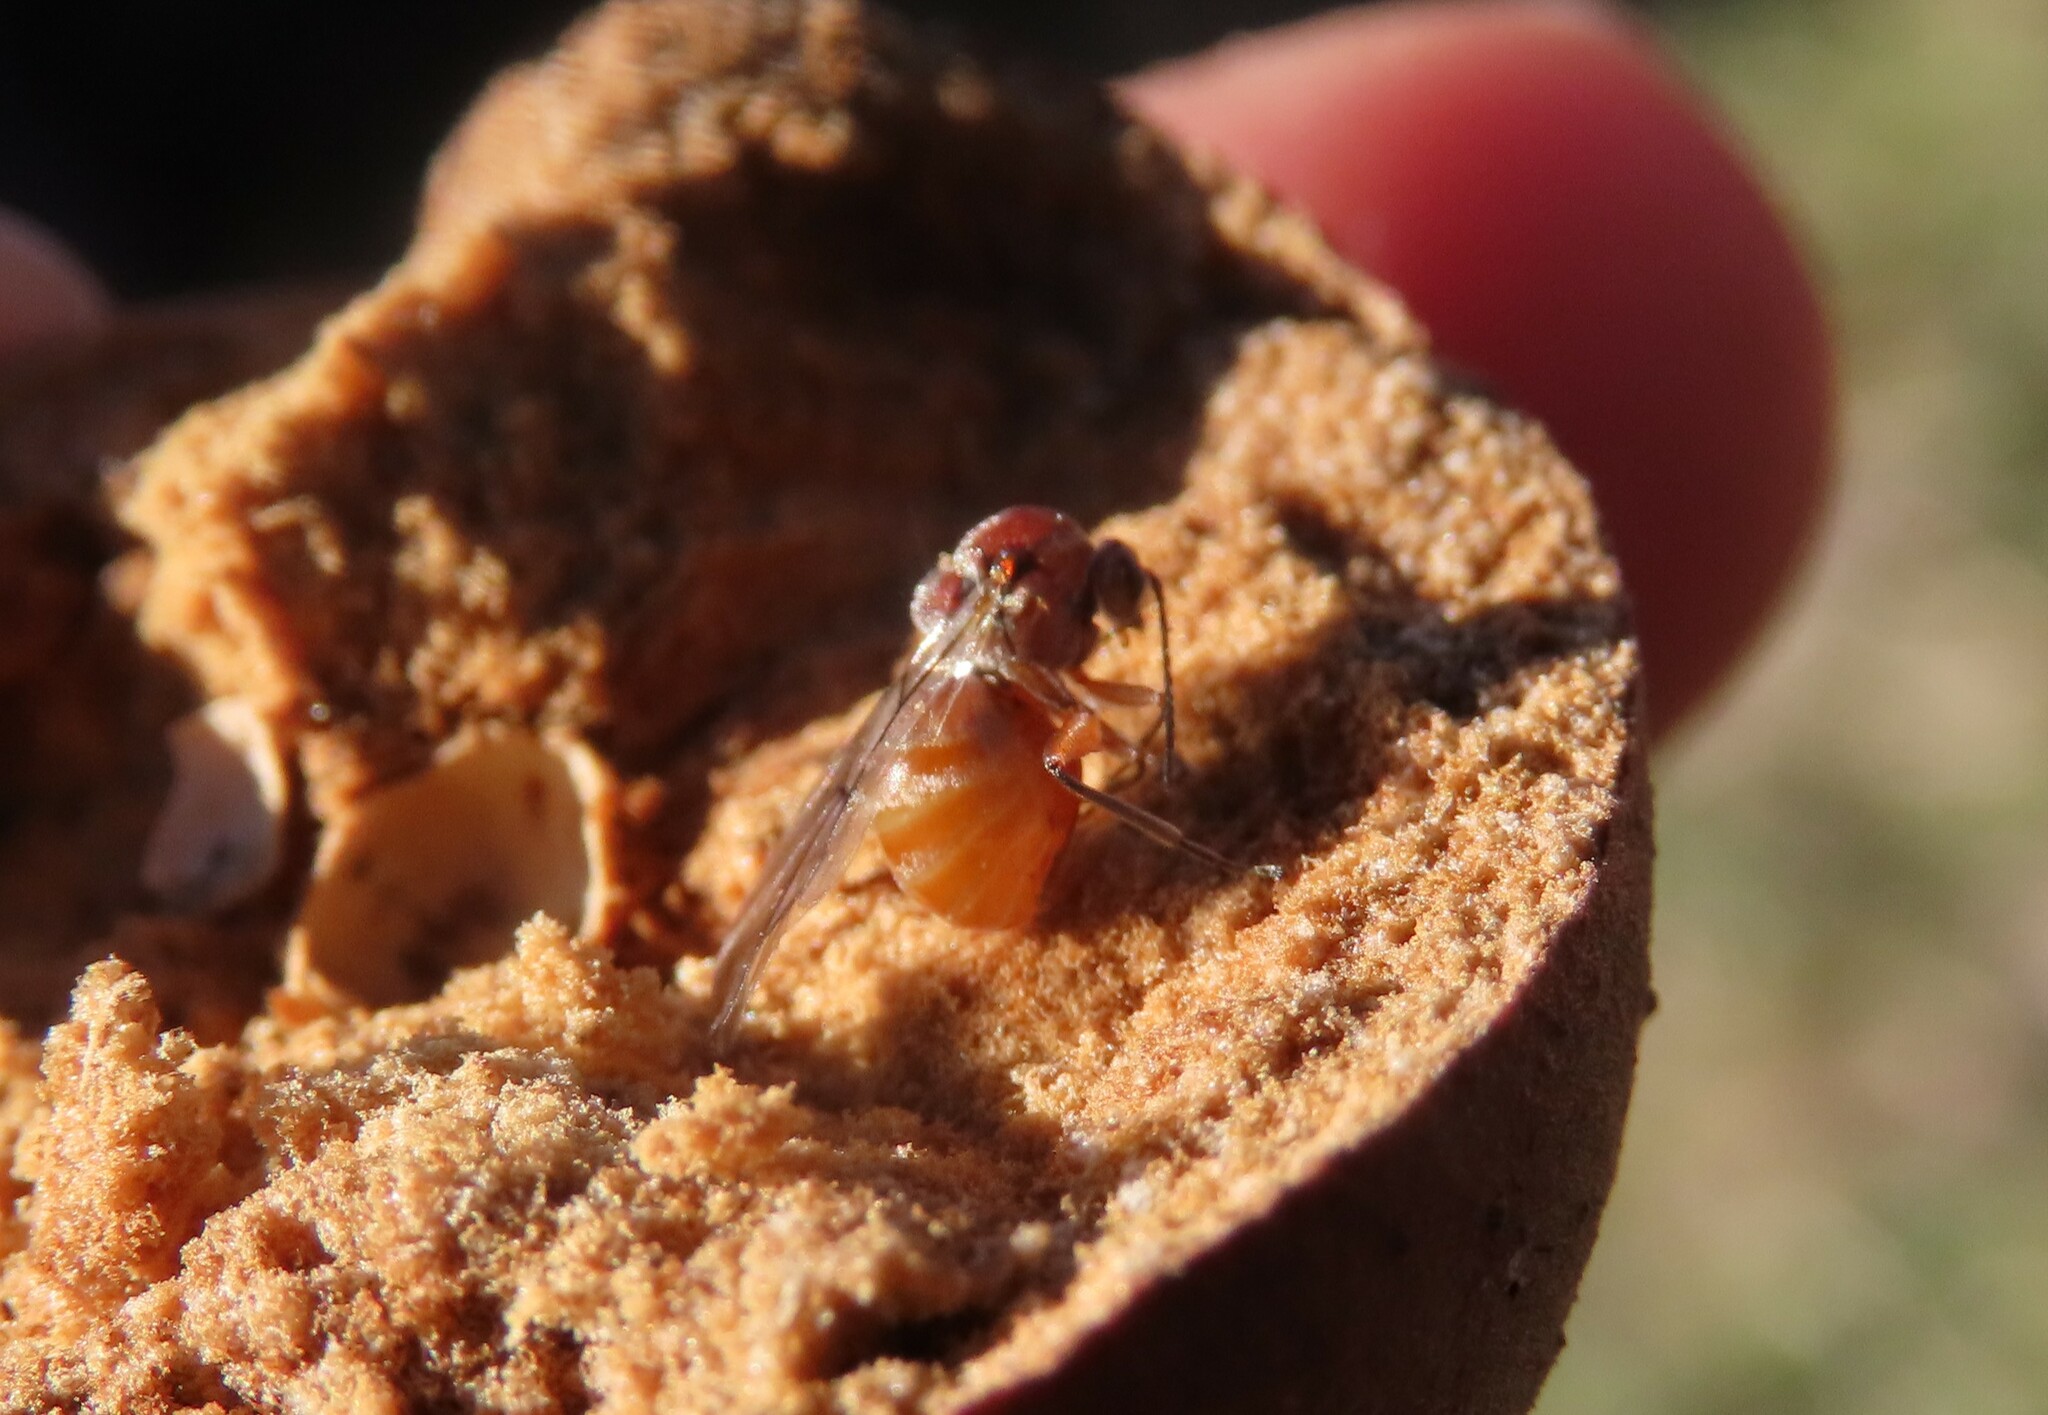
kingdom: Animalia
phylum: Arthropoda
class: Insecta
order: Hymenoptera
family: Cynipidae
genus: Andricus
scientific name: Andricus quercustozae
